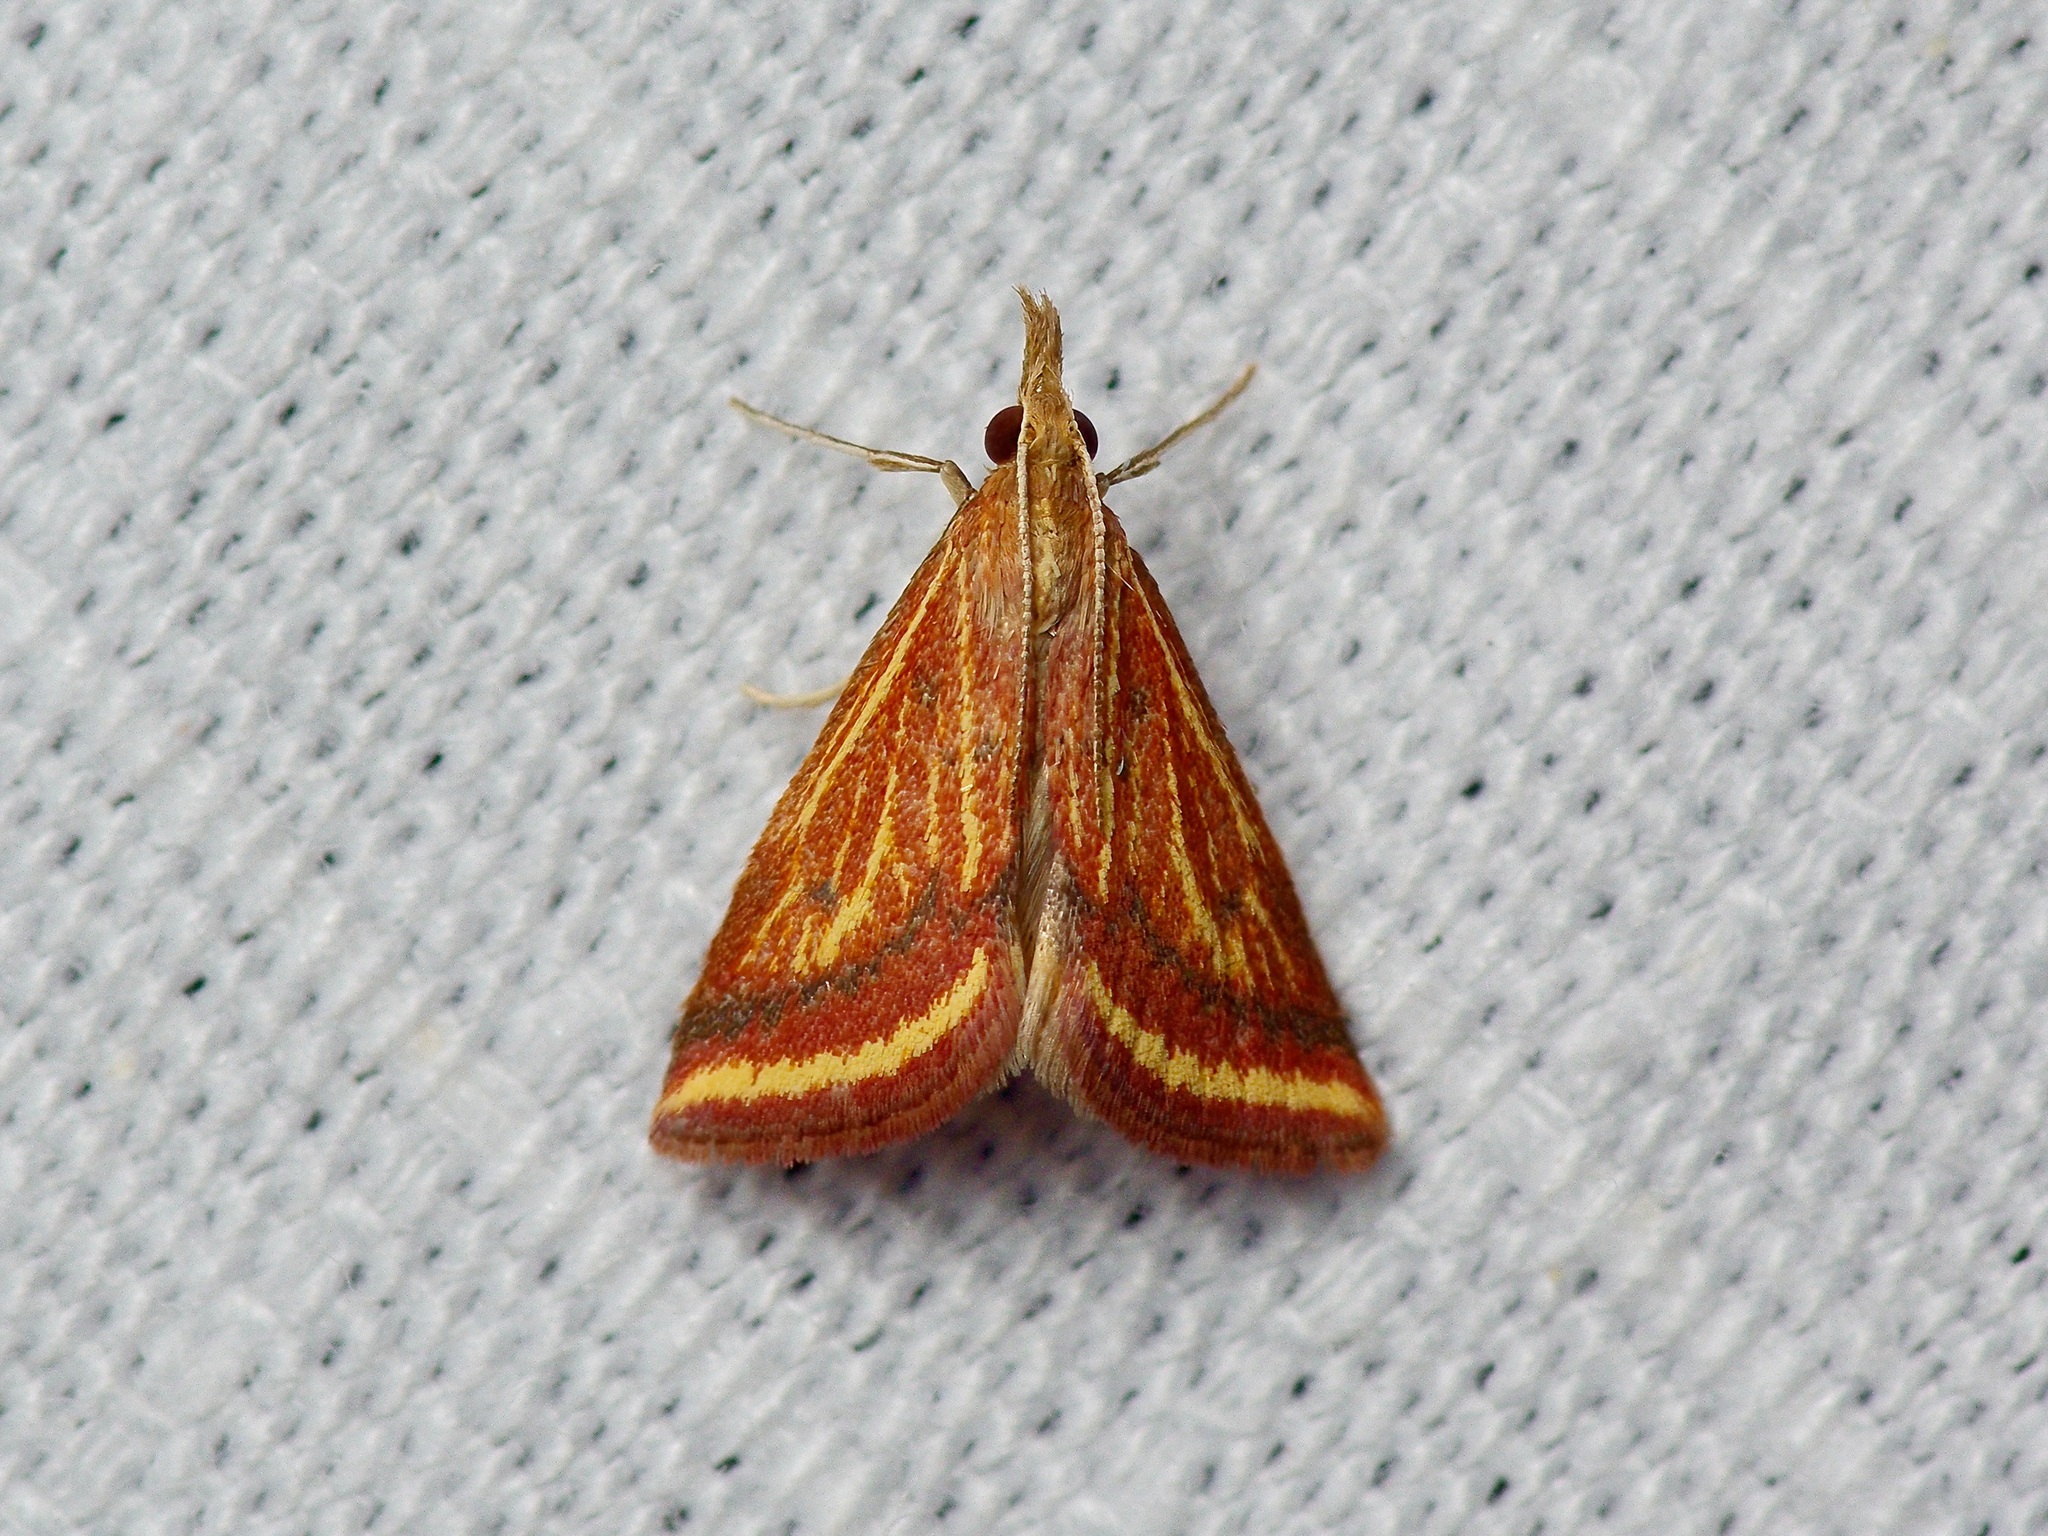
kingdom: Animalia
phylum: Arthropoda
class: Insecta
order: Lepidoptera
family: Crambidae
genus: Microtheoris
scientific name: Microtheoris ophionalis
